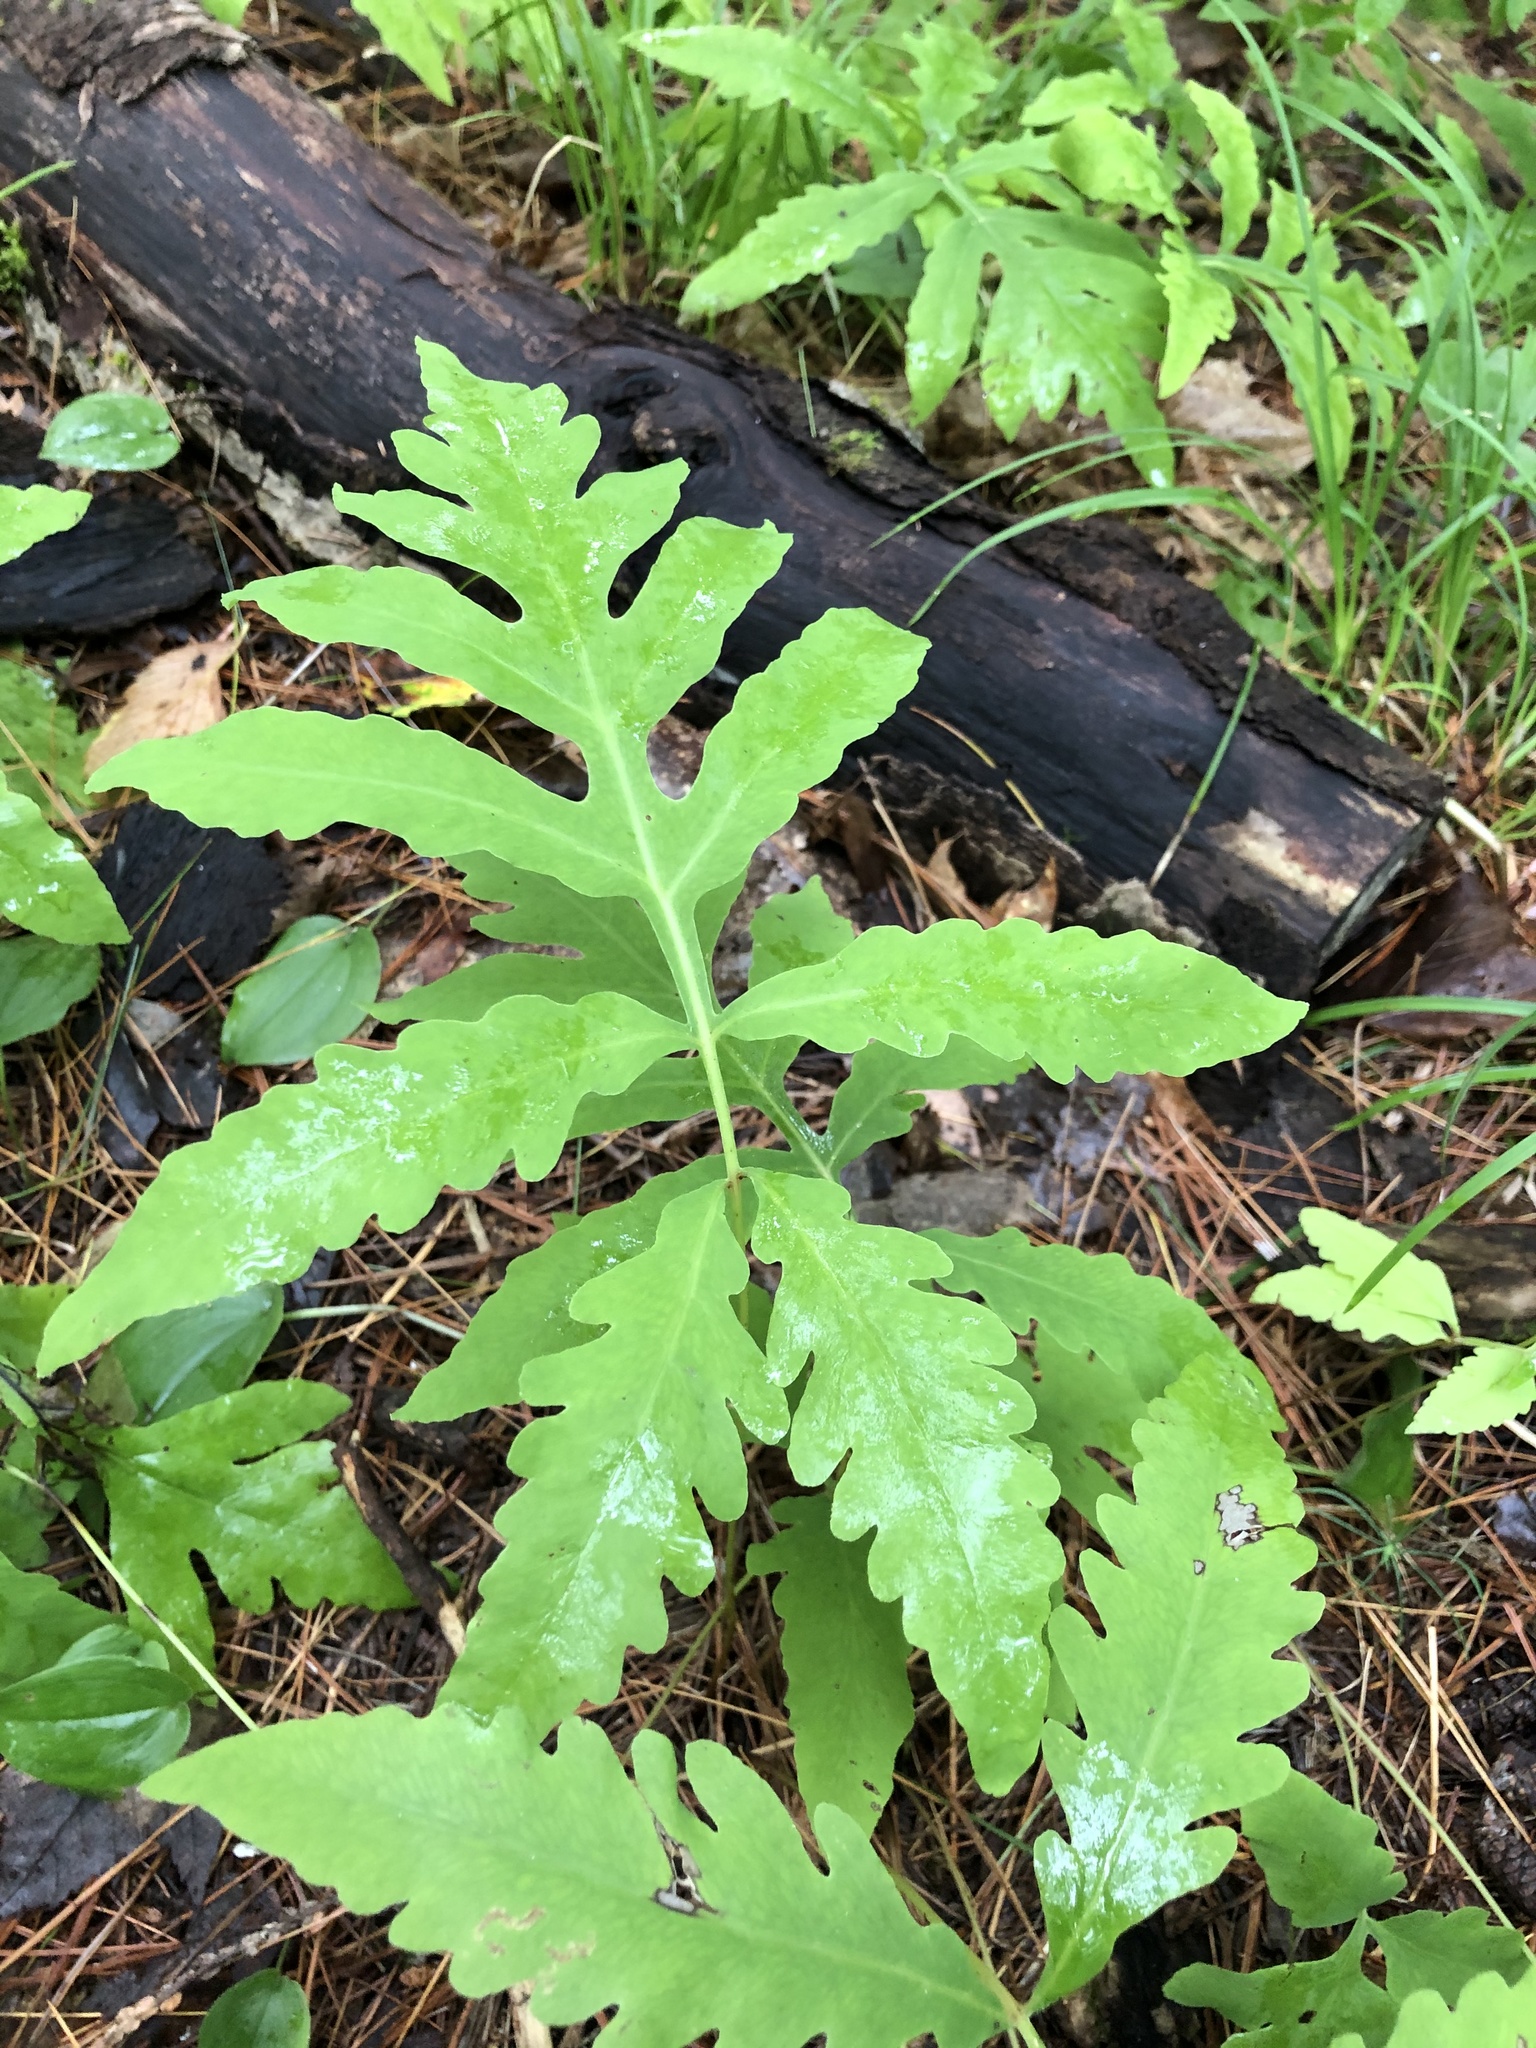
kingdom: Plantae
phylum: Tracheophyta
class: Polypodiopsida
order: Polypodiales
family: Onocleaceae
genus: Onoclea
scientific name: Onoclea sensibilis
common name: Sensitive fern
